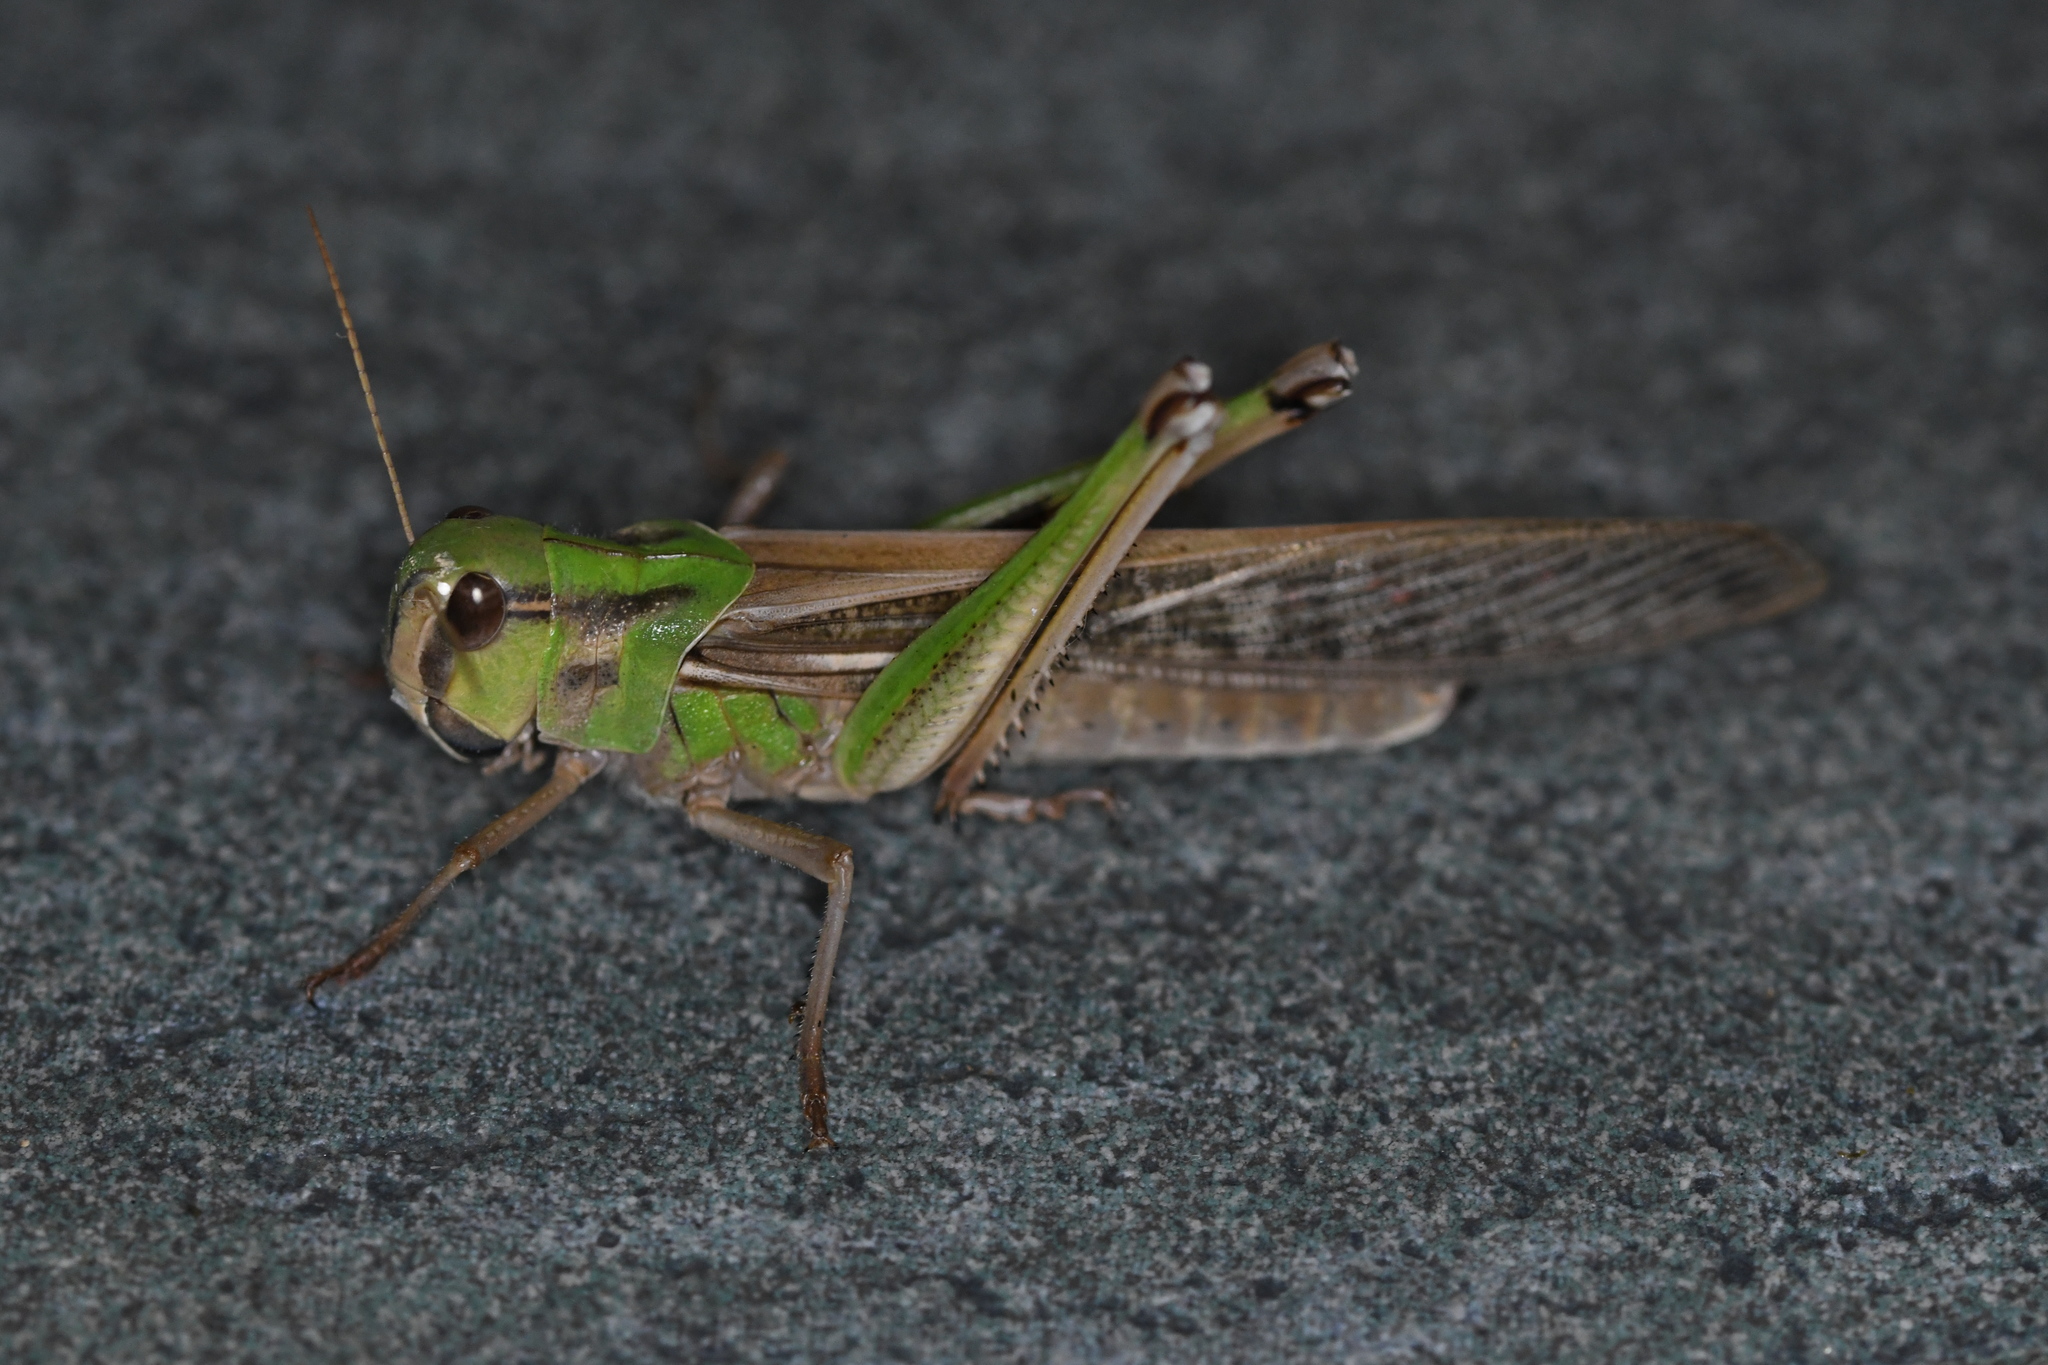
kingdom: Animalia
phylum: Arthropoda
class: Insecta
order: Orthoptera
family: Acrididae
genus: Locusta
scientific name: Locusta migratoria
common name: Migratory locust
